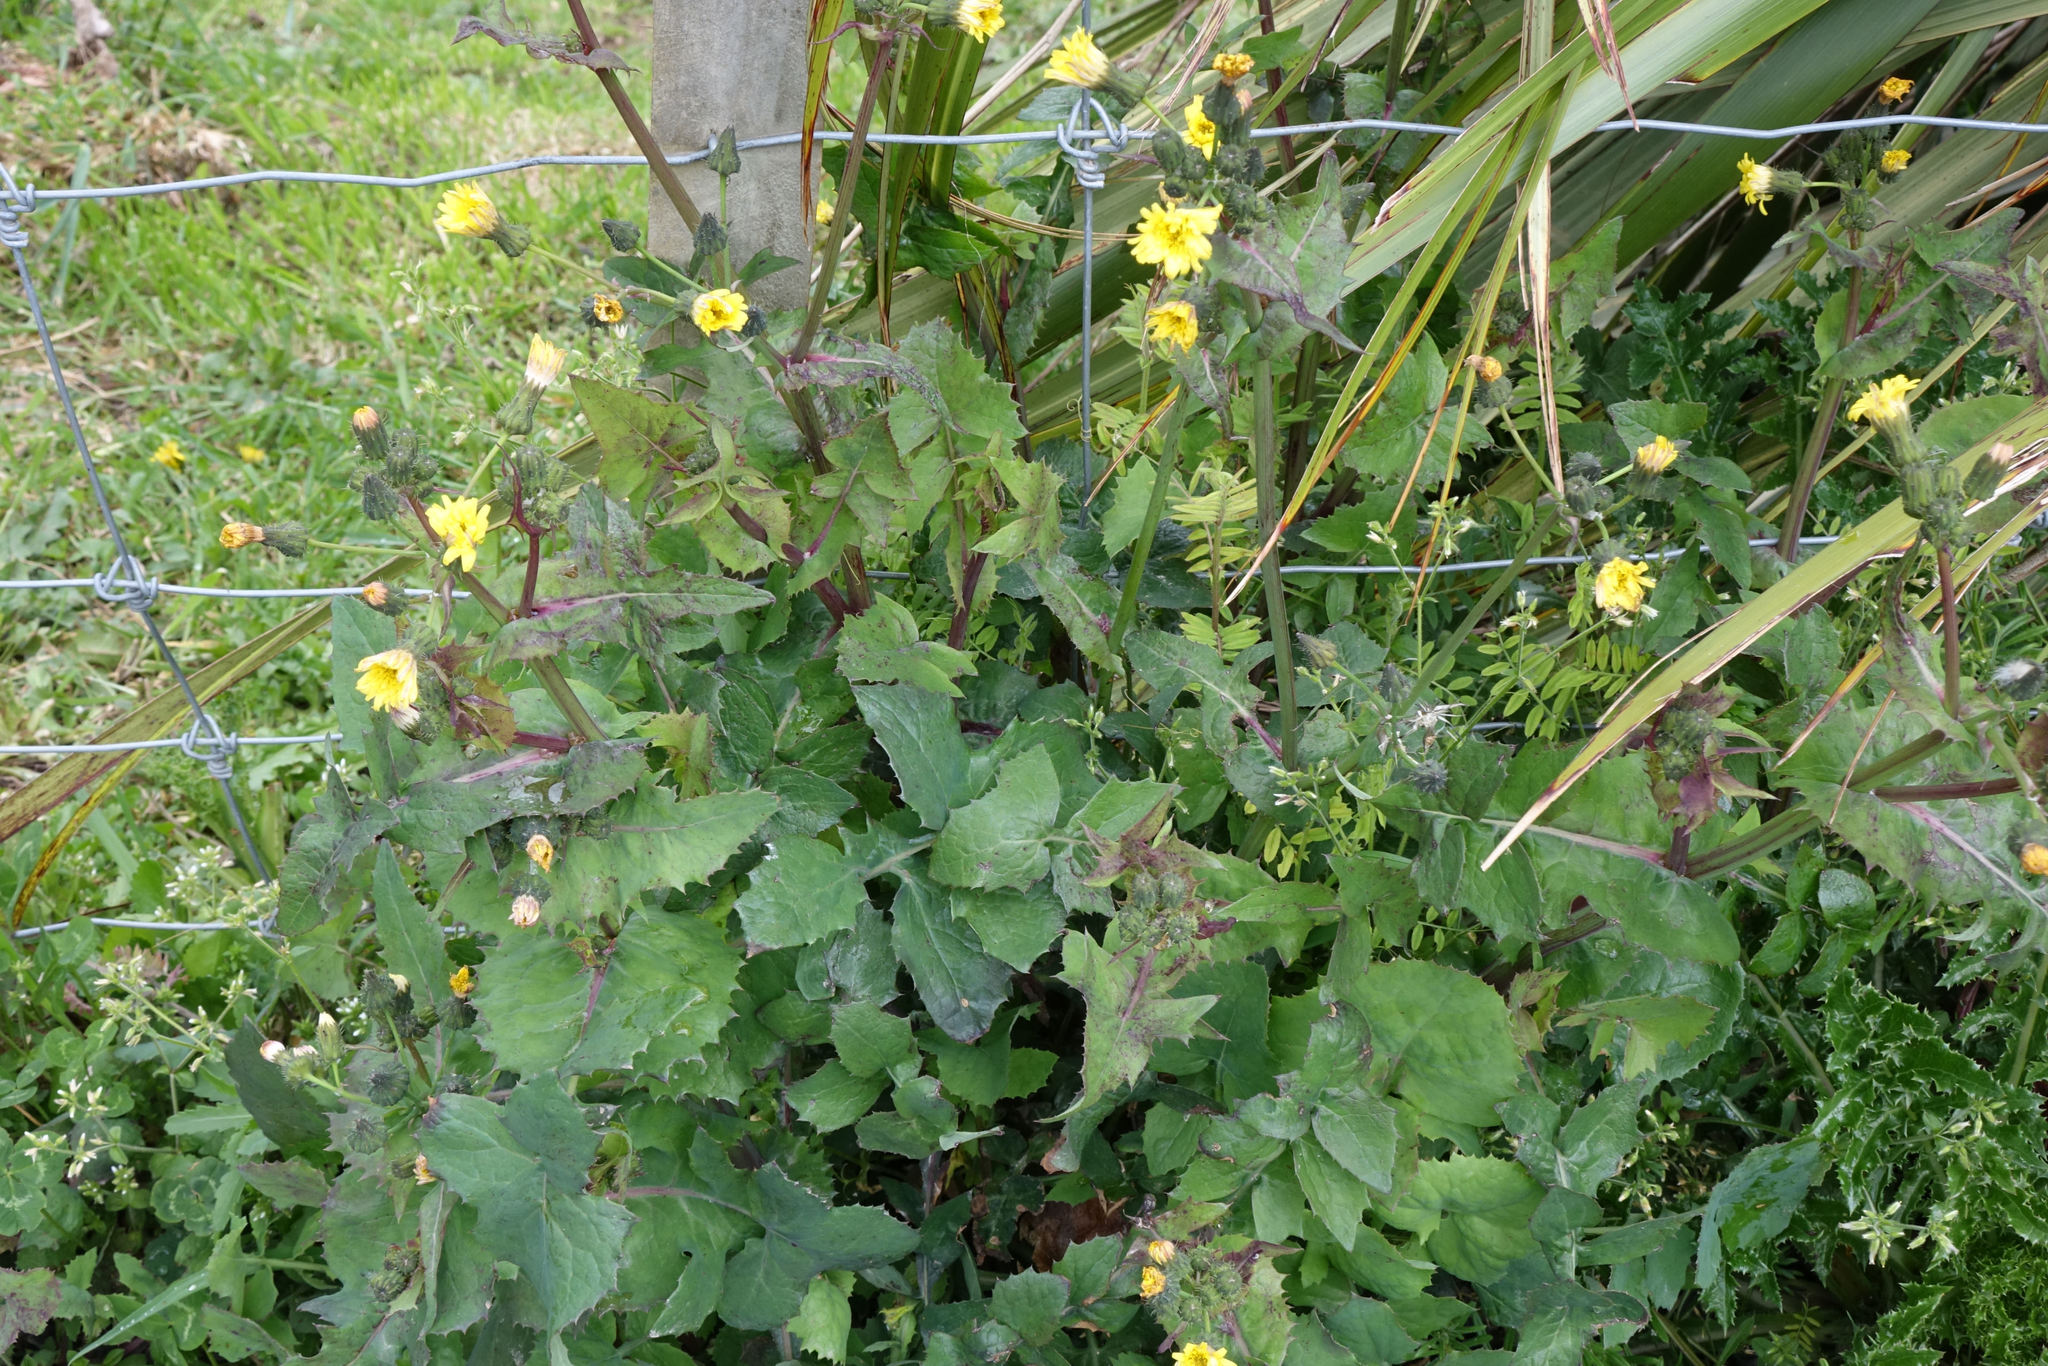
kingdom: Plantae
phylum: Tracheophyta
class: Magnoliopsida
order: Asterales
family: Asteraceae
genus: Sonchus
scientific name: Sonchus oleraceus
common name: Common sowthistle
